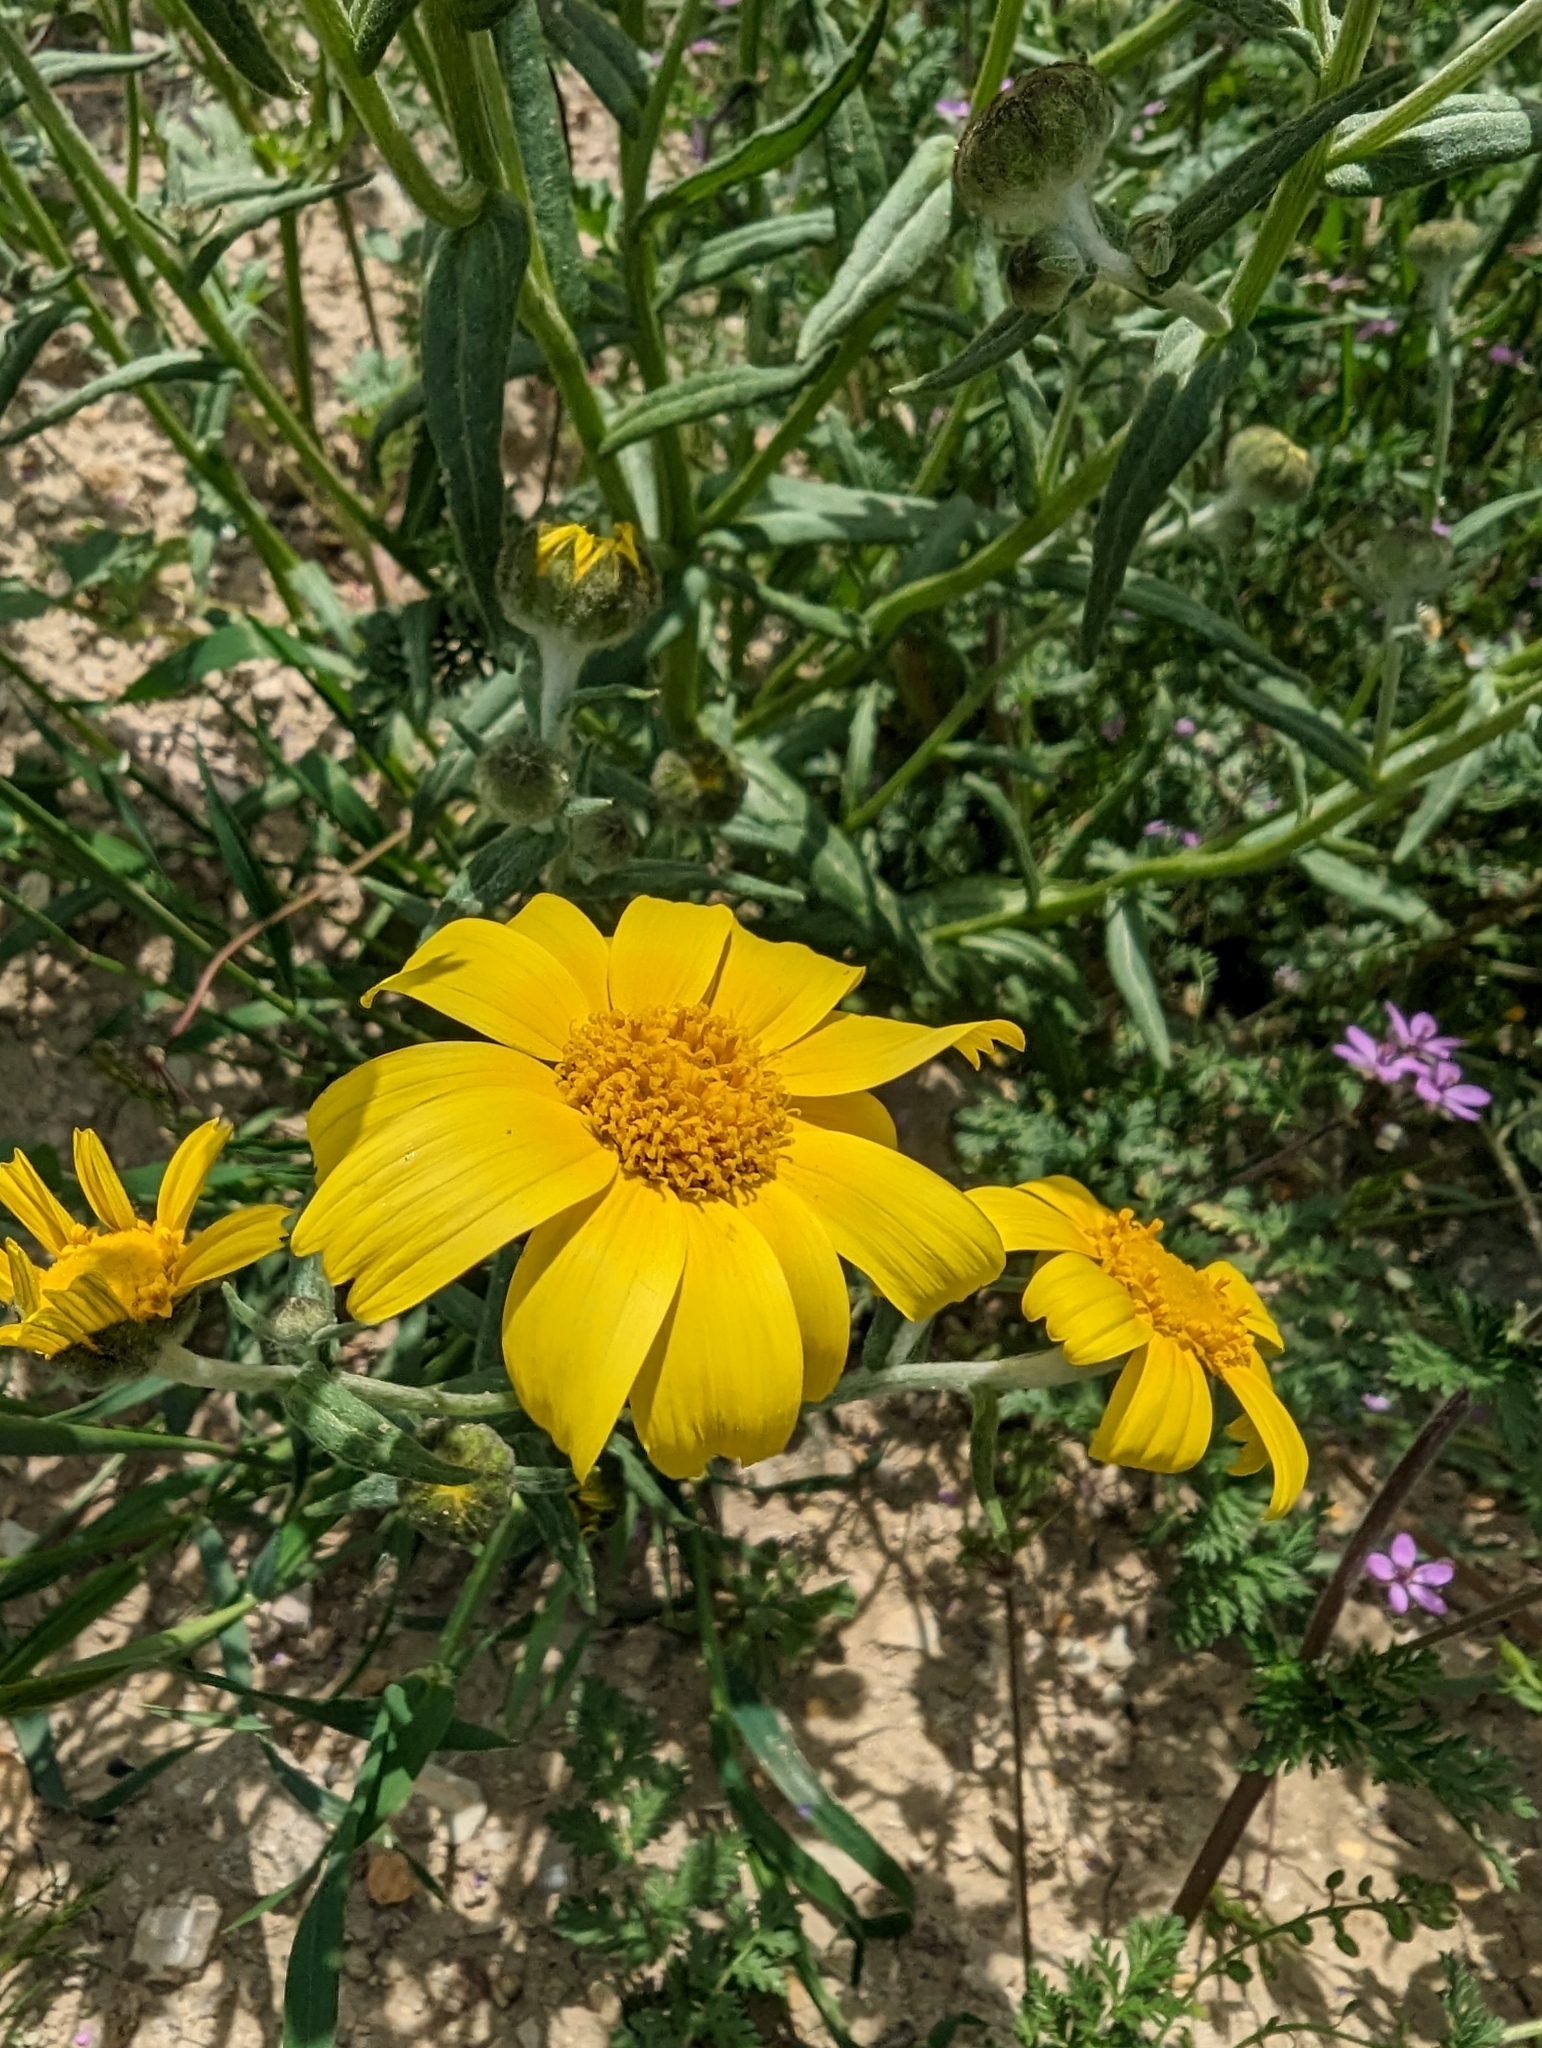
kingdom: Plantae
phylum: Tracheophyta
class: Magnoliopsida
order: Asterales
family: Asteraceae
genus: Monolopia
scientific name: Monolopia lanceolata
